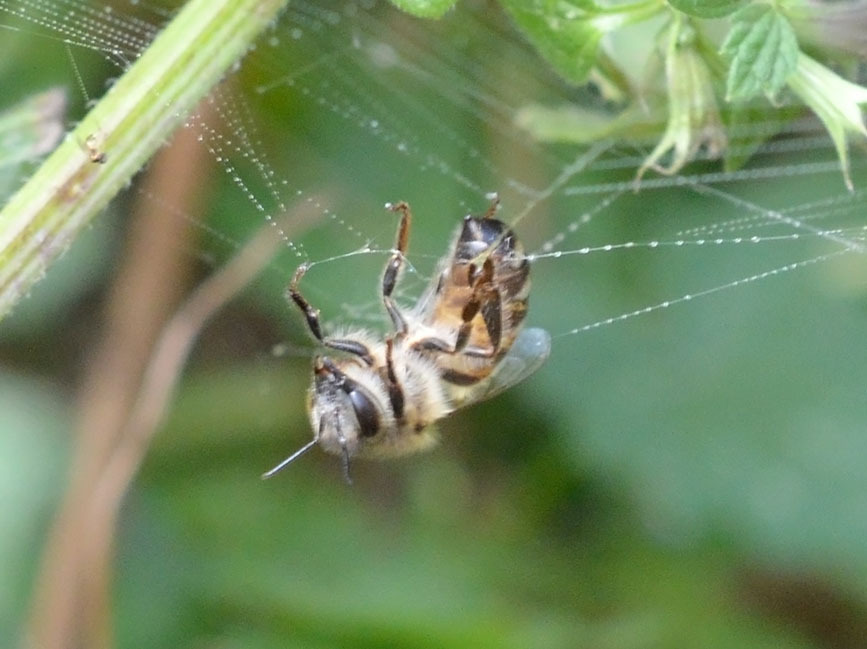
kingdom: Animalia
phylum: Arthropoda
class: Insecta
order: Hymenoptera
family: Apidae
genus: Apis
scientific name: Apis mellifera
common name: Honey bee
